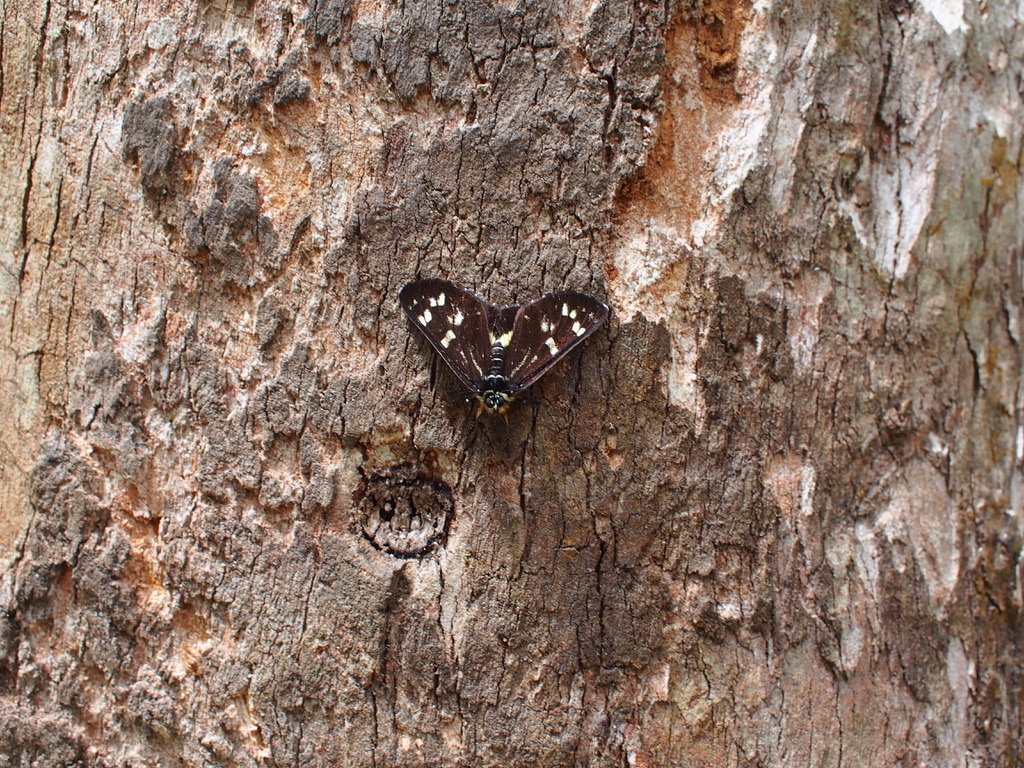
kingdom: Animalia
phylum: Arthropoda
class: Insecta
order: Lepidoptera
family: Noctuidae
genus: Cruria
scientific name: Cruria synopla
